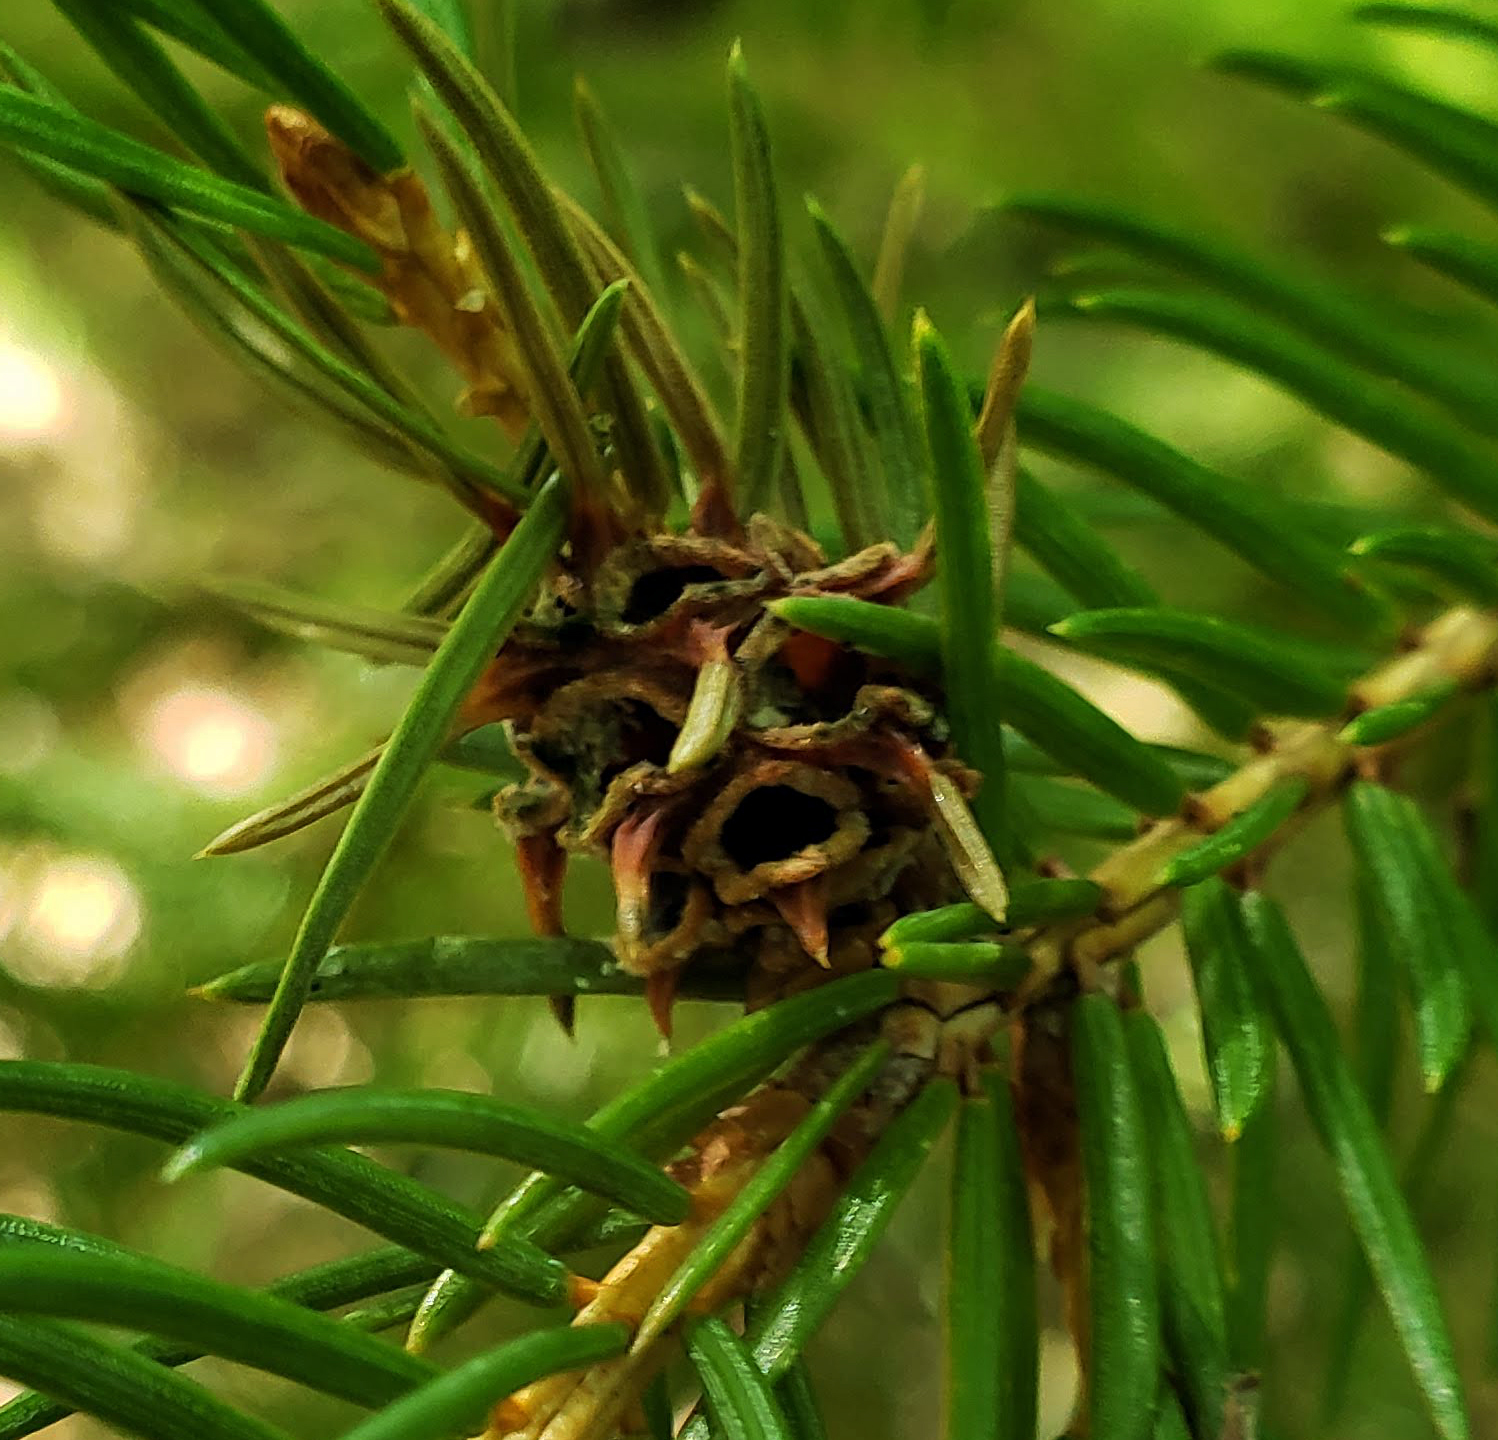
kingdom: Animalia
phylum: Arthropoda
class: Insecta
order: Hemiptera
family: Adelgidae
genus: Adelges
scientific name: Adelges abietis
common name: Eastern spruce gall adelgid
